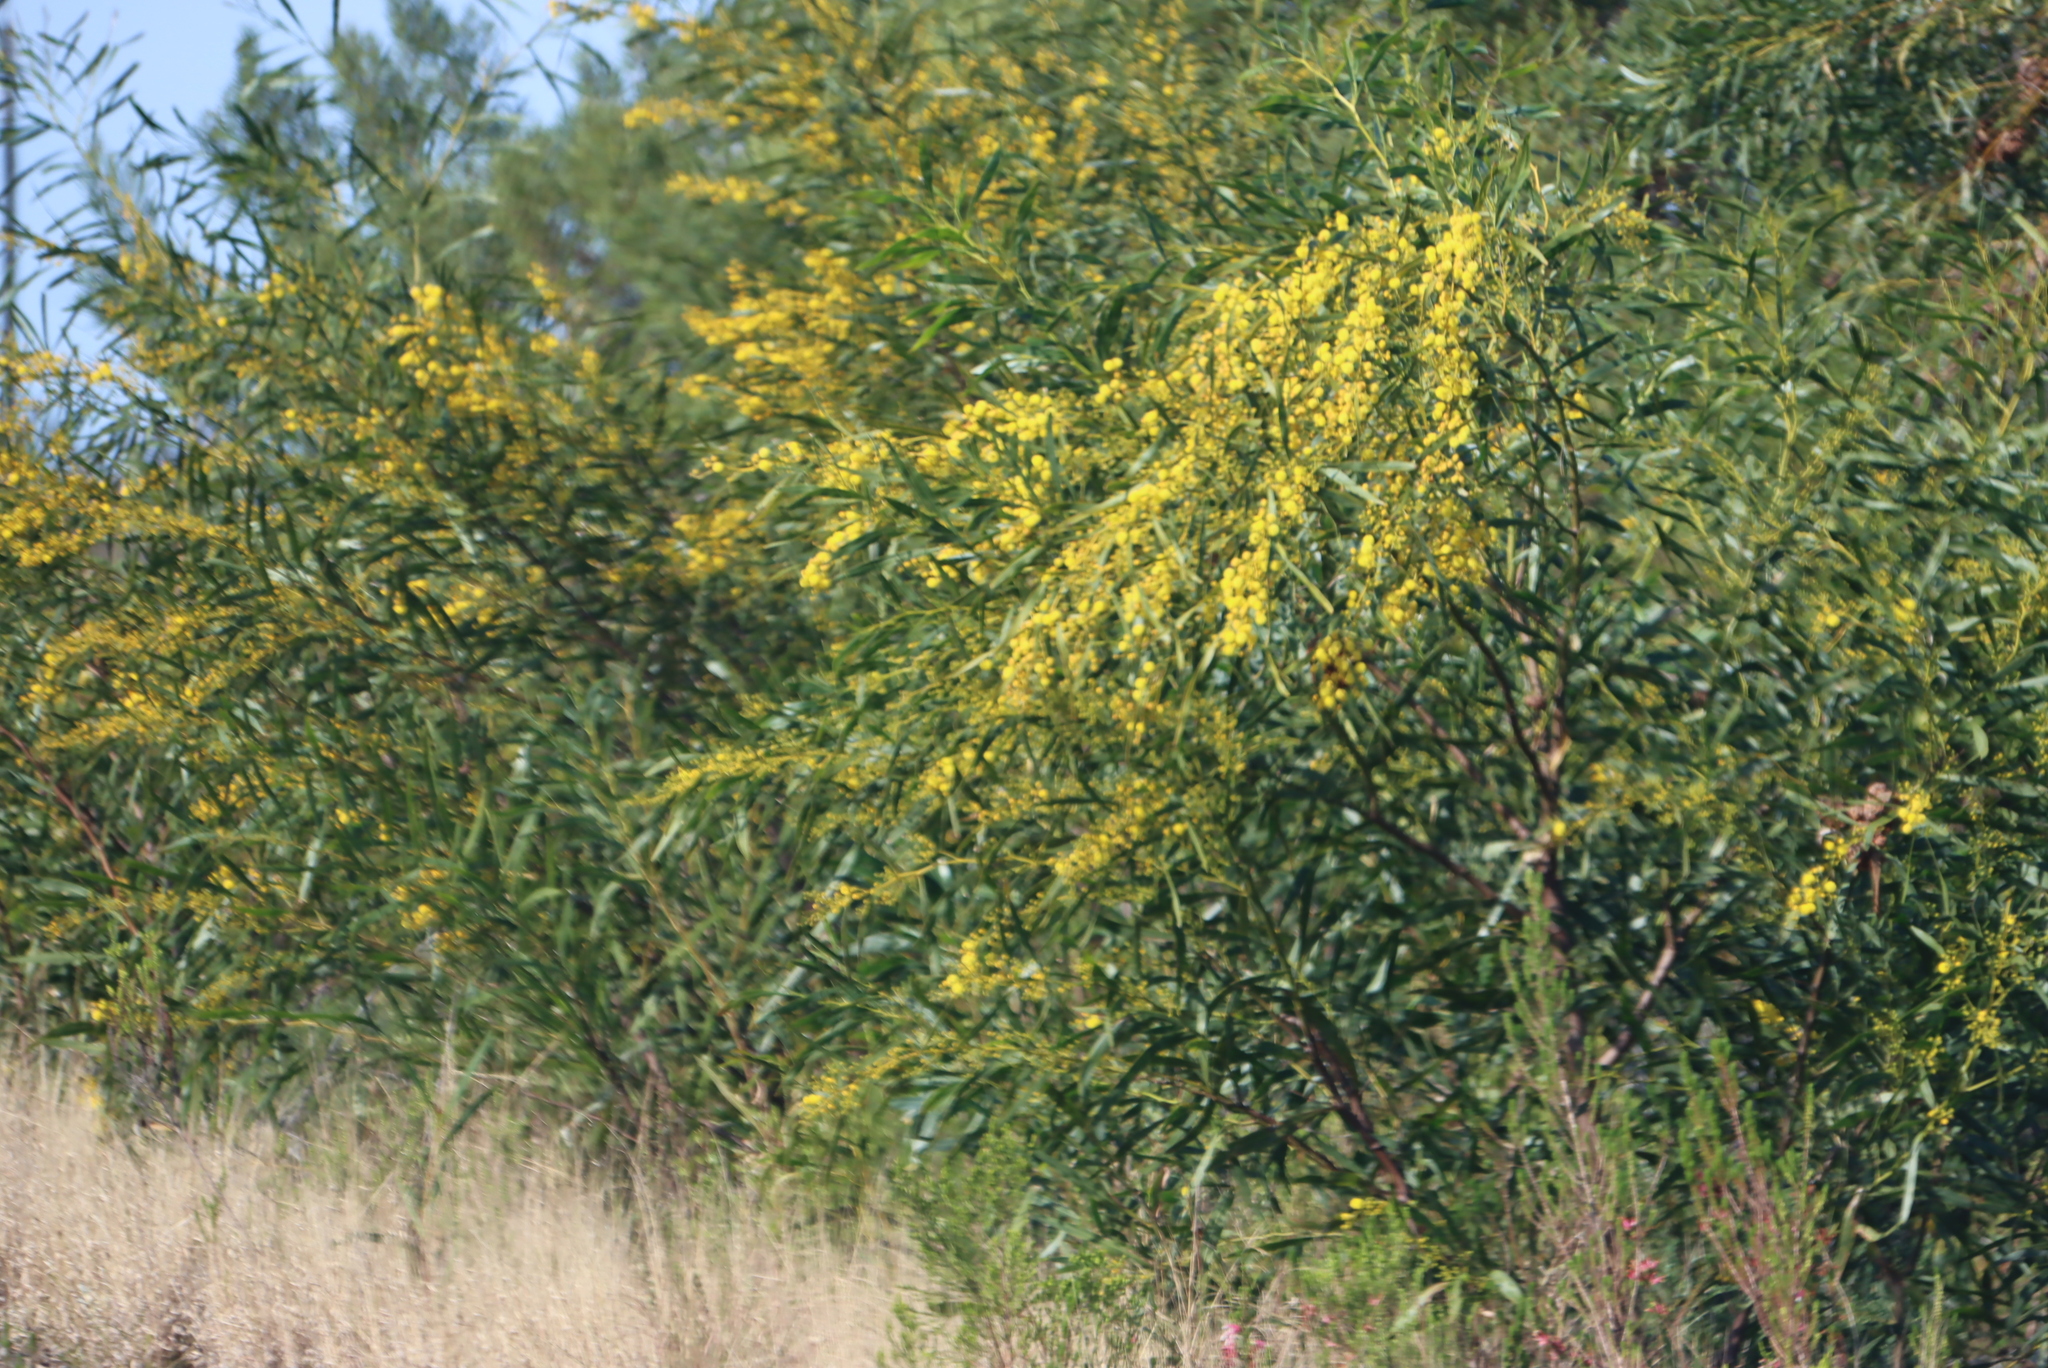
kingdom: Plantae
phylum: Tracheophyta
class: Magnoliopsida
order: Fabales
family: Fabaceae
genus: Acacia
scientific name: Acacia saligna
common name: Orange wattle
